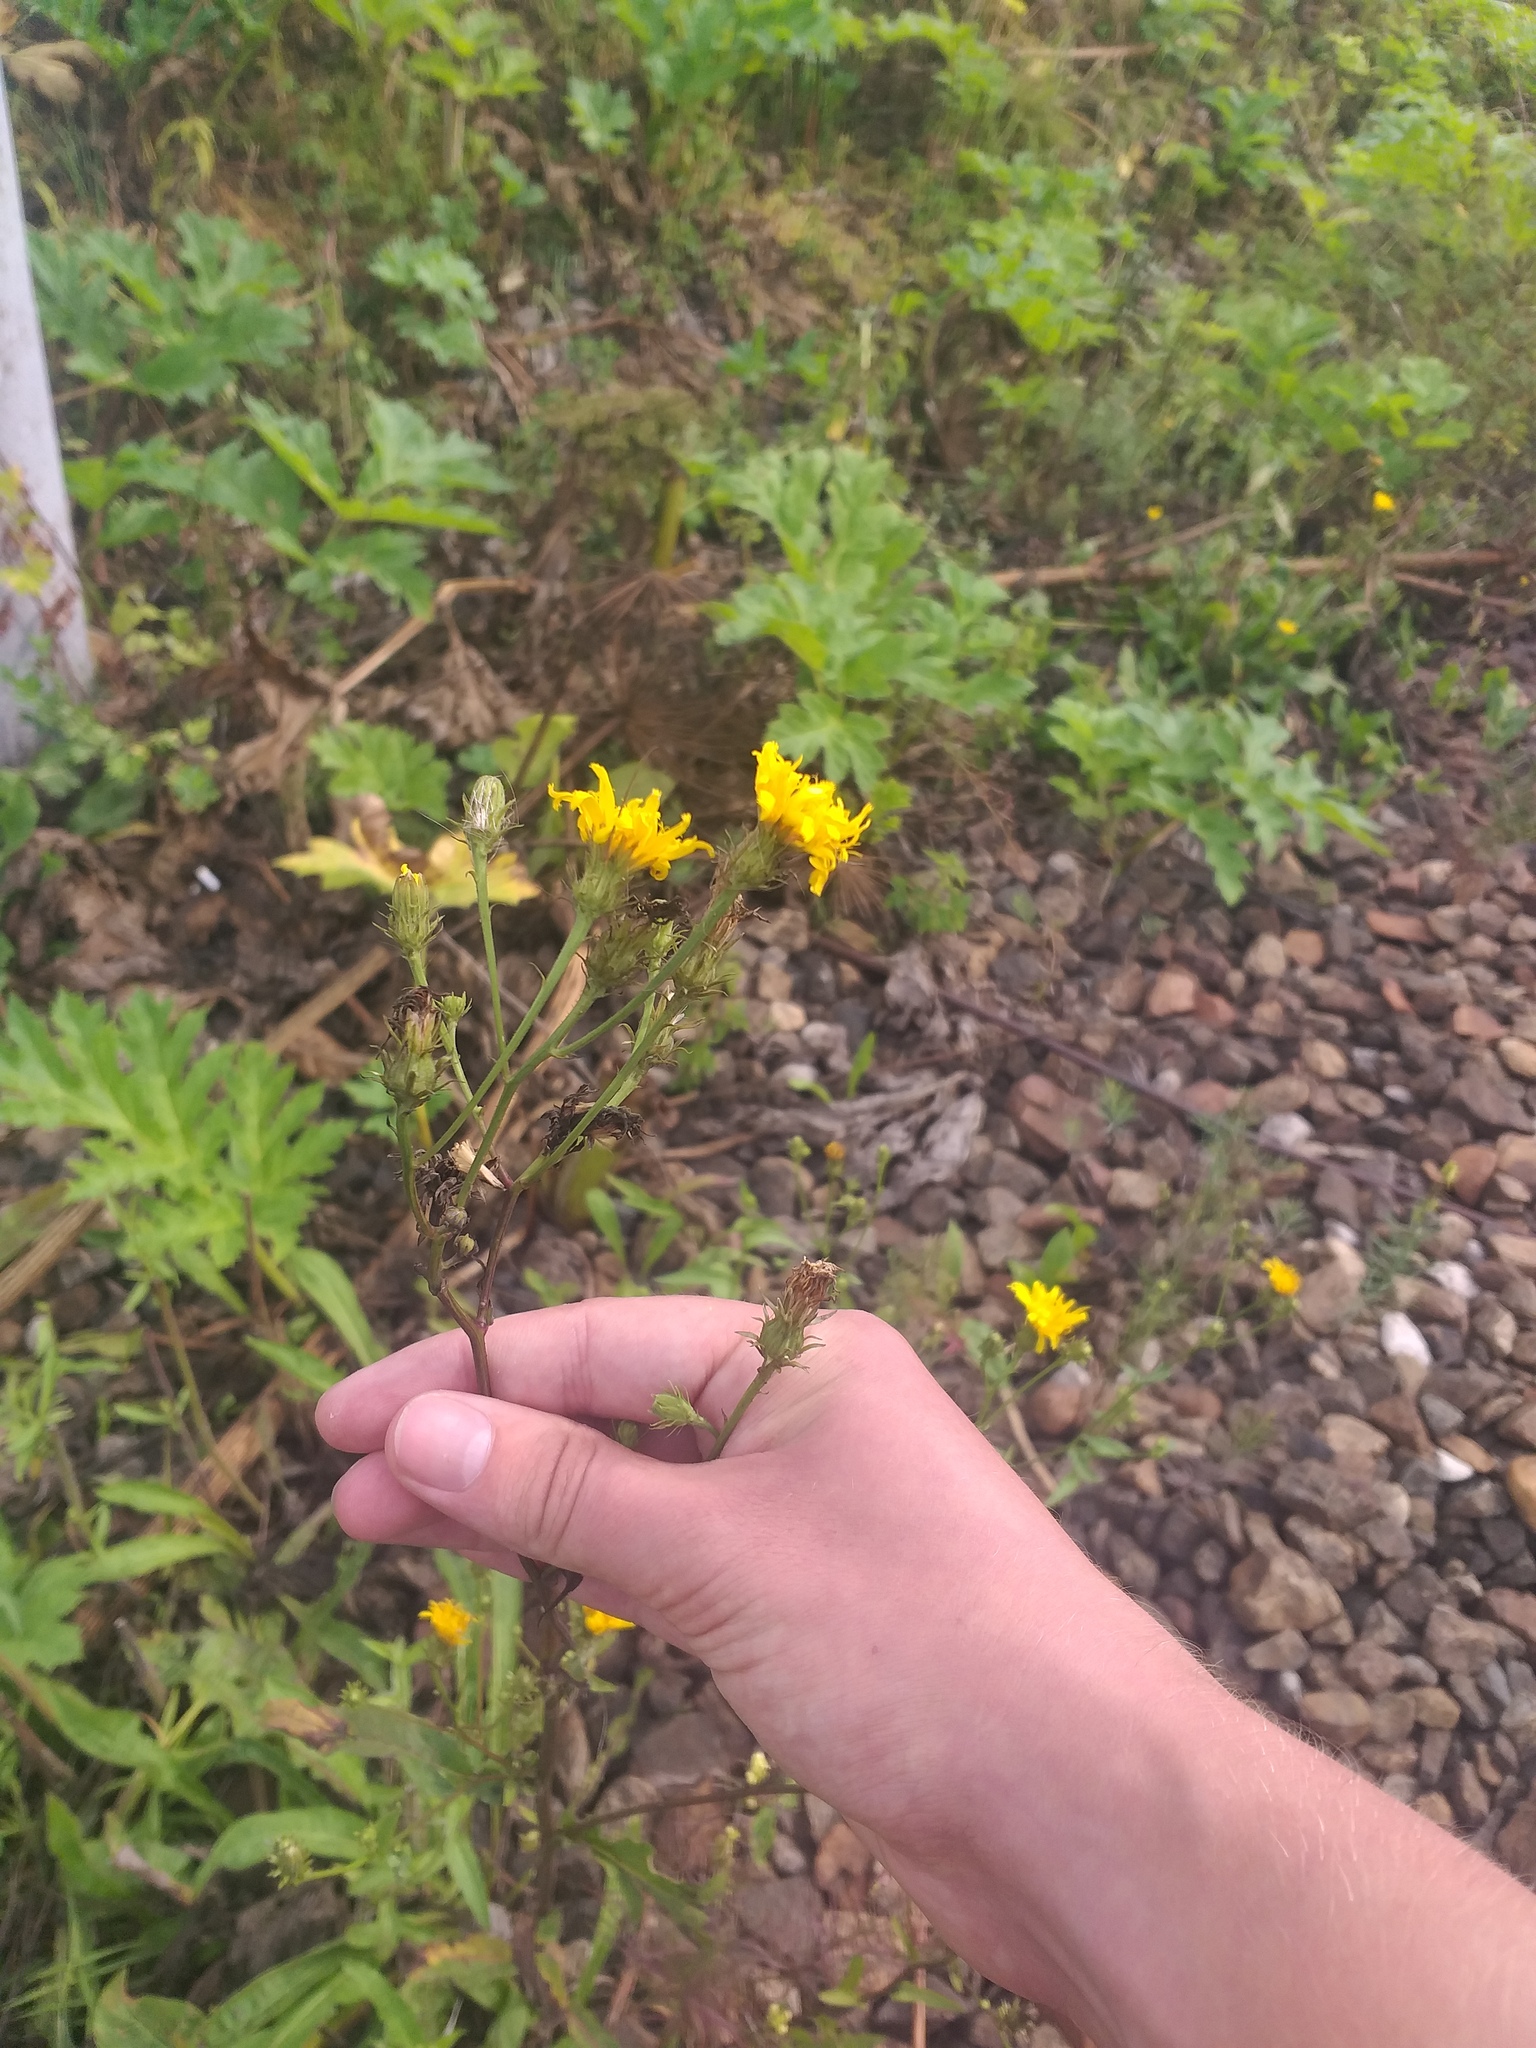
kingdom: Plantae
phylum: Tracheophyta
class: Magnoliopsida
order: Asterales
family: Asteraceae
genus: Picris
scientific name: Picris hieracioides
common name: Hawkweed oxtongue
